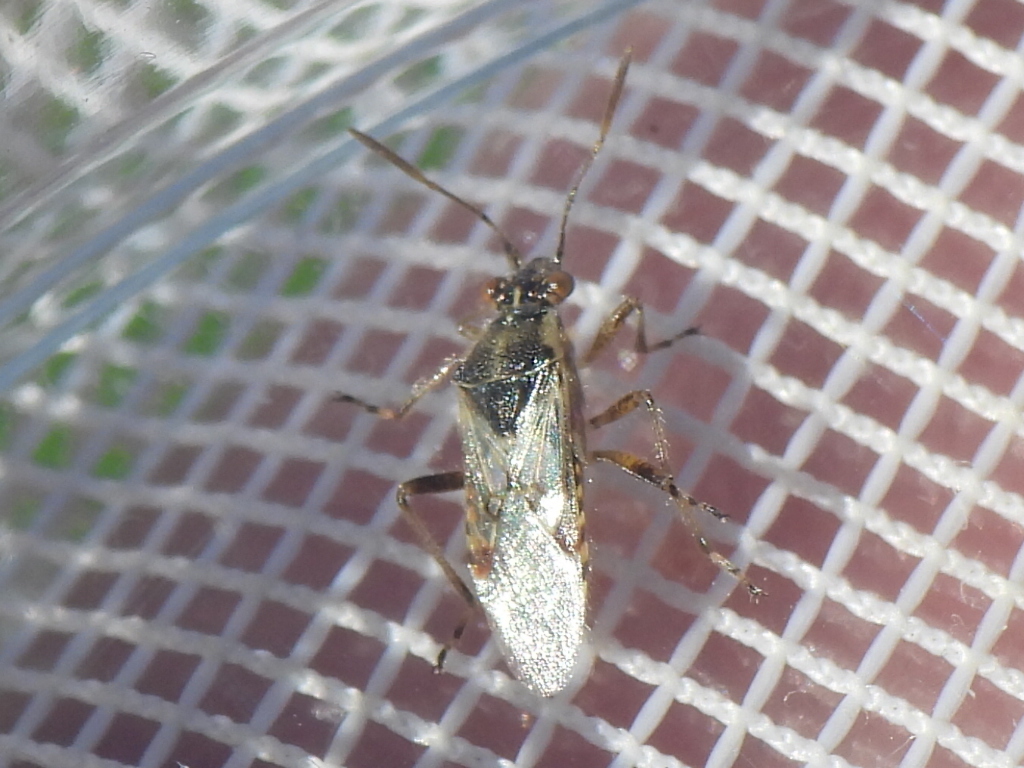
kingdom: Animalia
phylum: Arthropoda
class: Insecta
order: Hemiptera
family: Rhopalidae
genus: Liorhyssus
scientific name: Liorhyssus hyalinus
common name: Scentless plant bug
